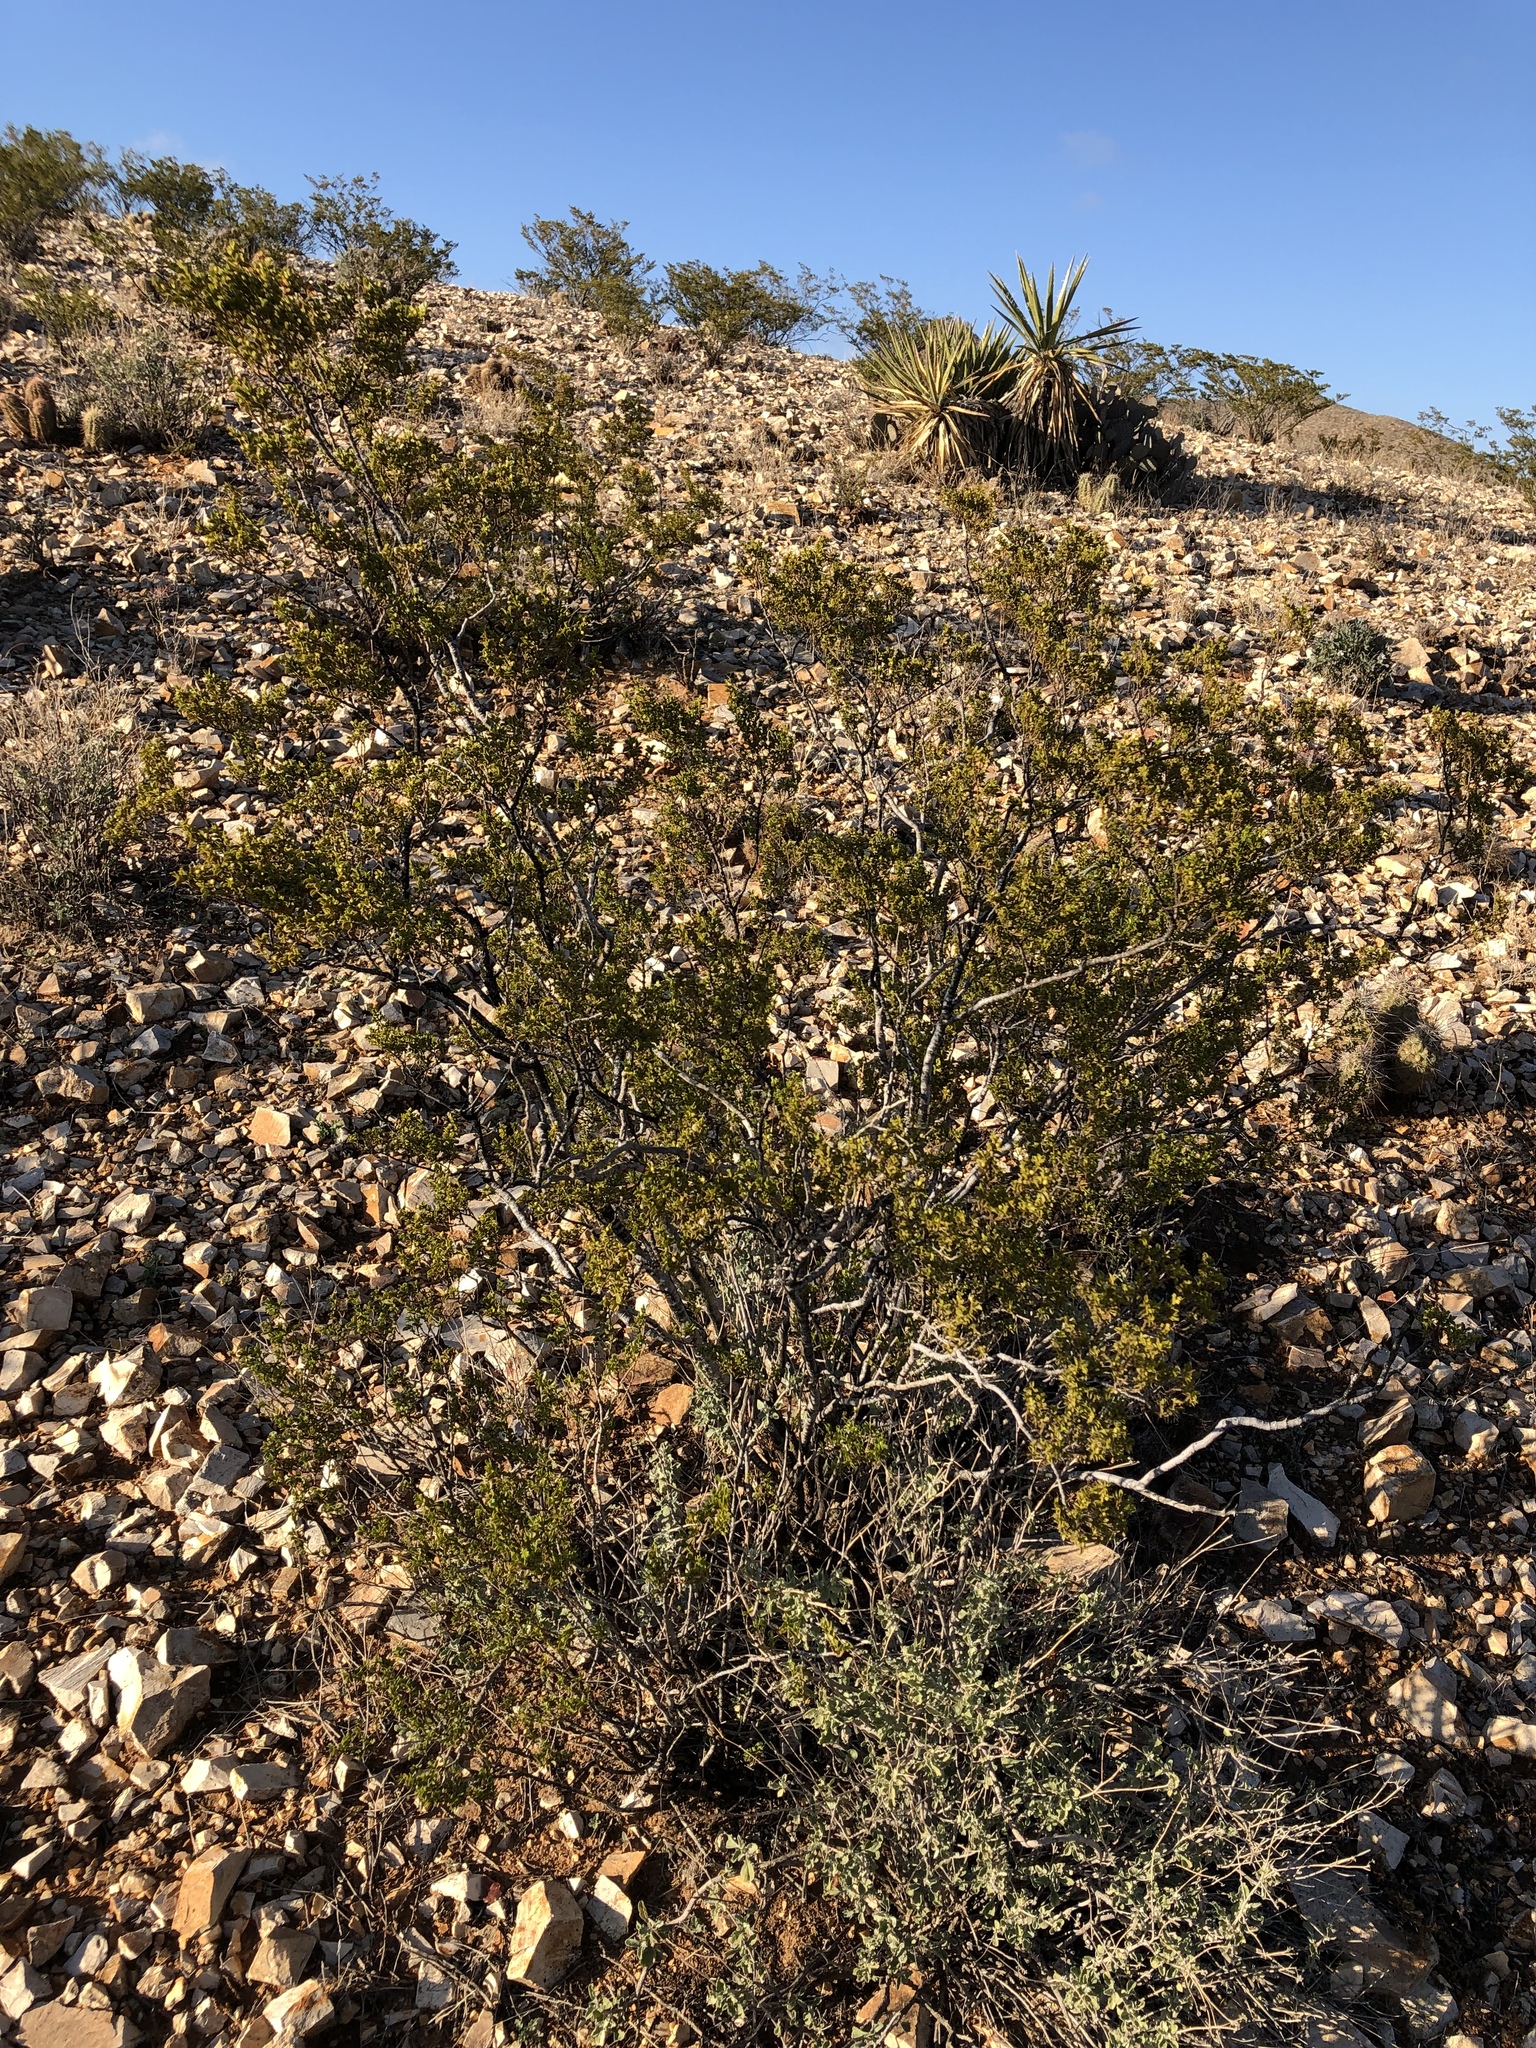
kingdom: Plantae
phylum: Tracheophyta
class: Magnoliopsida
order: Zygophyllales
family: Zygophyllaceae
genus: Larrea
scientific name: Larrea tridentata
